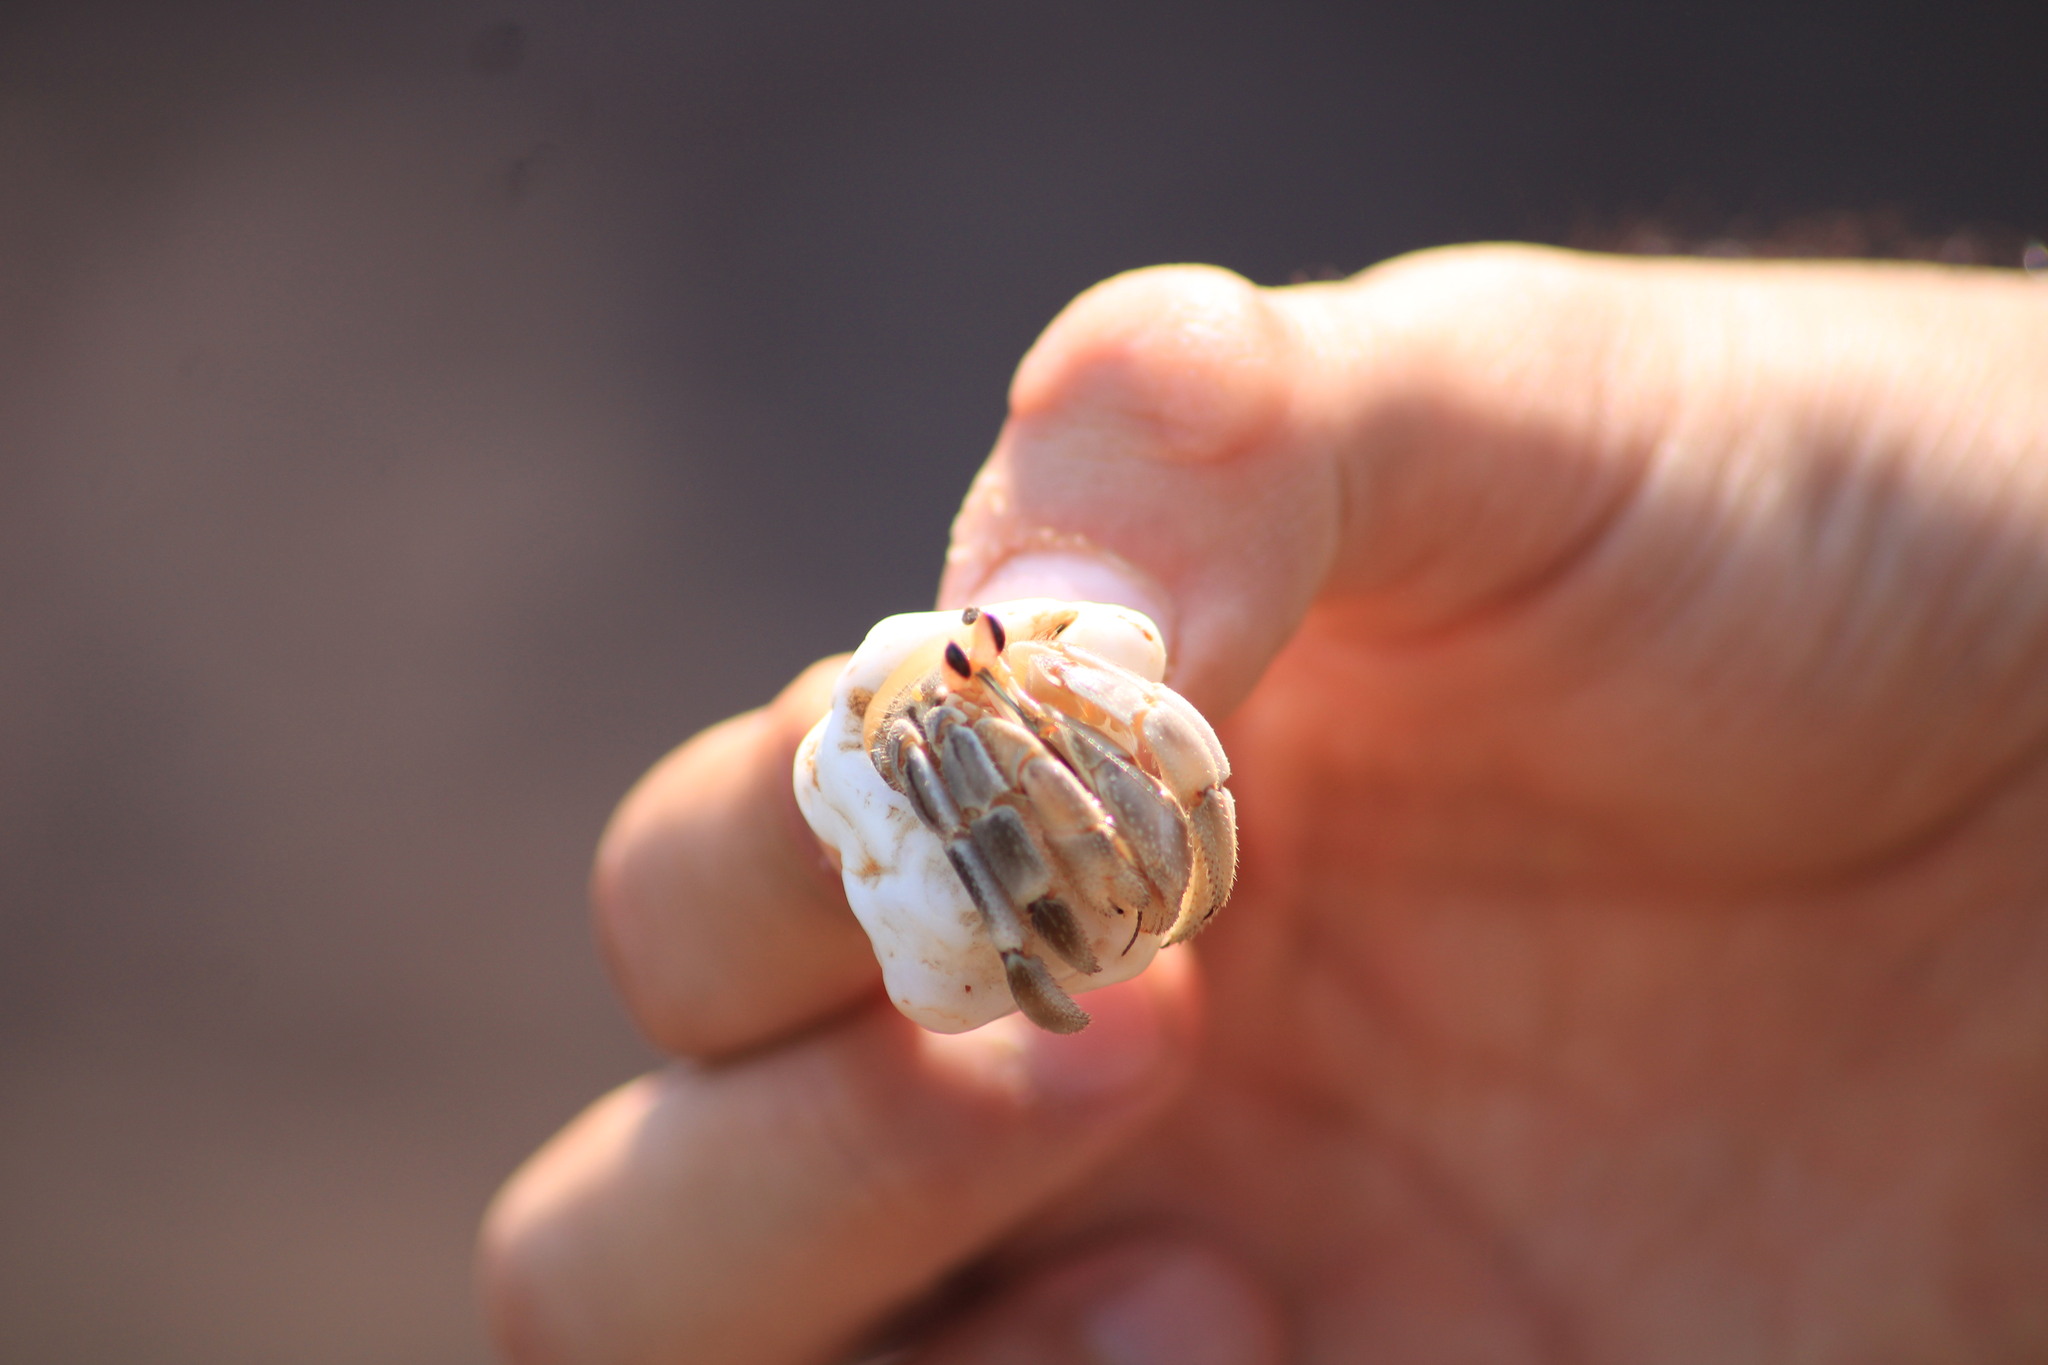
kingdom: Animalia
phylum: Arthropoda
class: Malacostraca
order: Decapoda
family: Coenobitidae
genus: Coenobita
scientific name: Coenobita compressus
